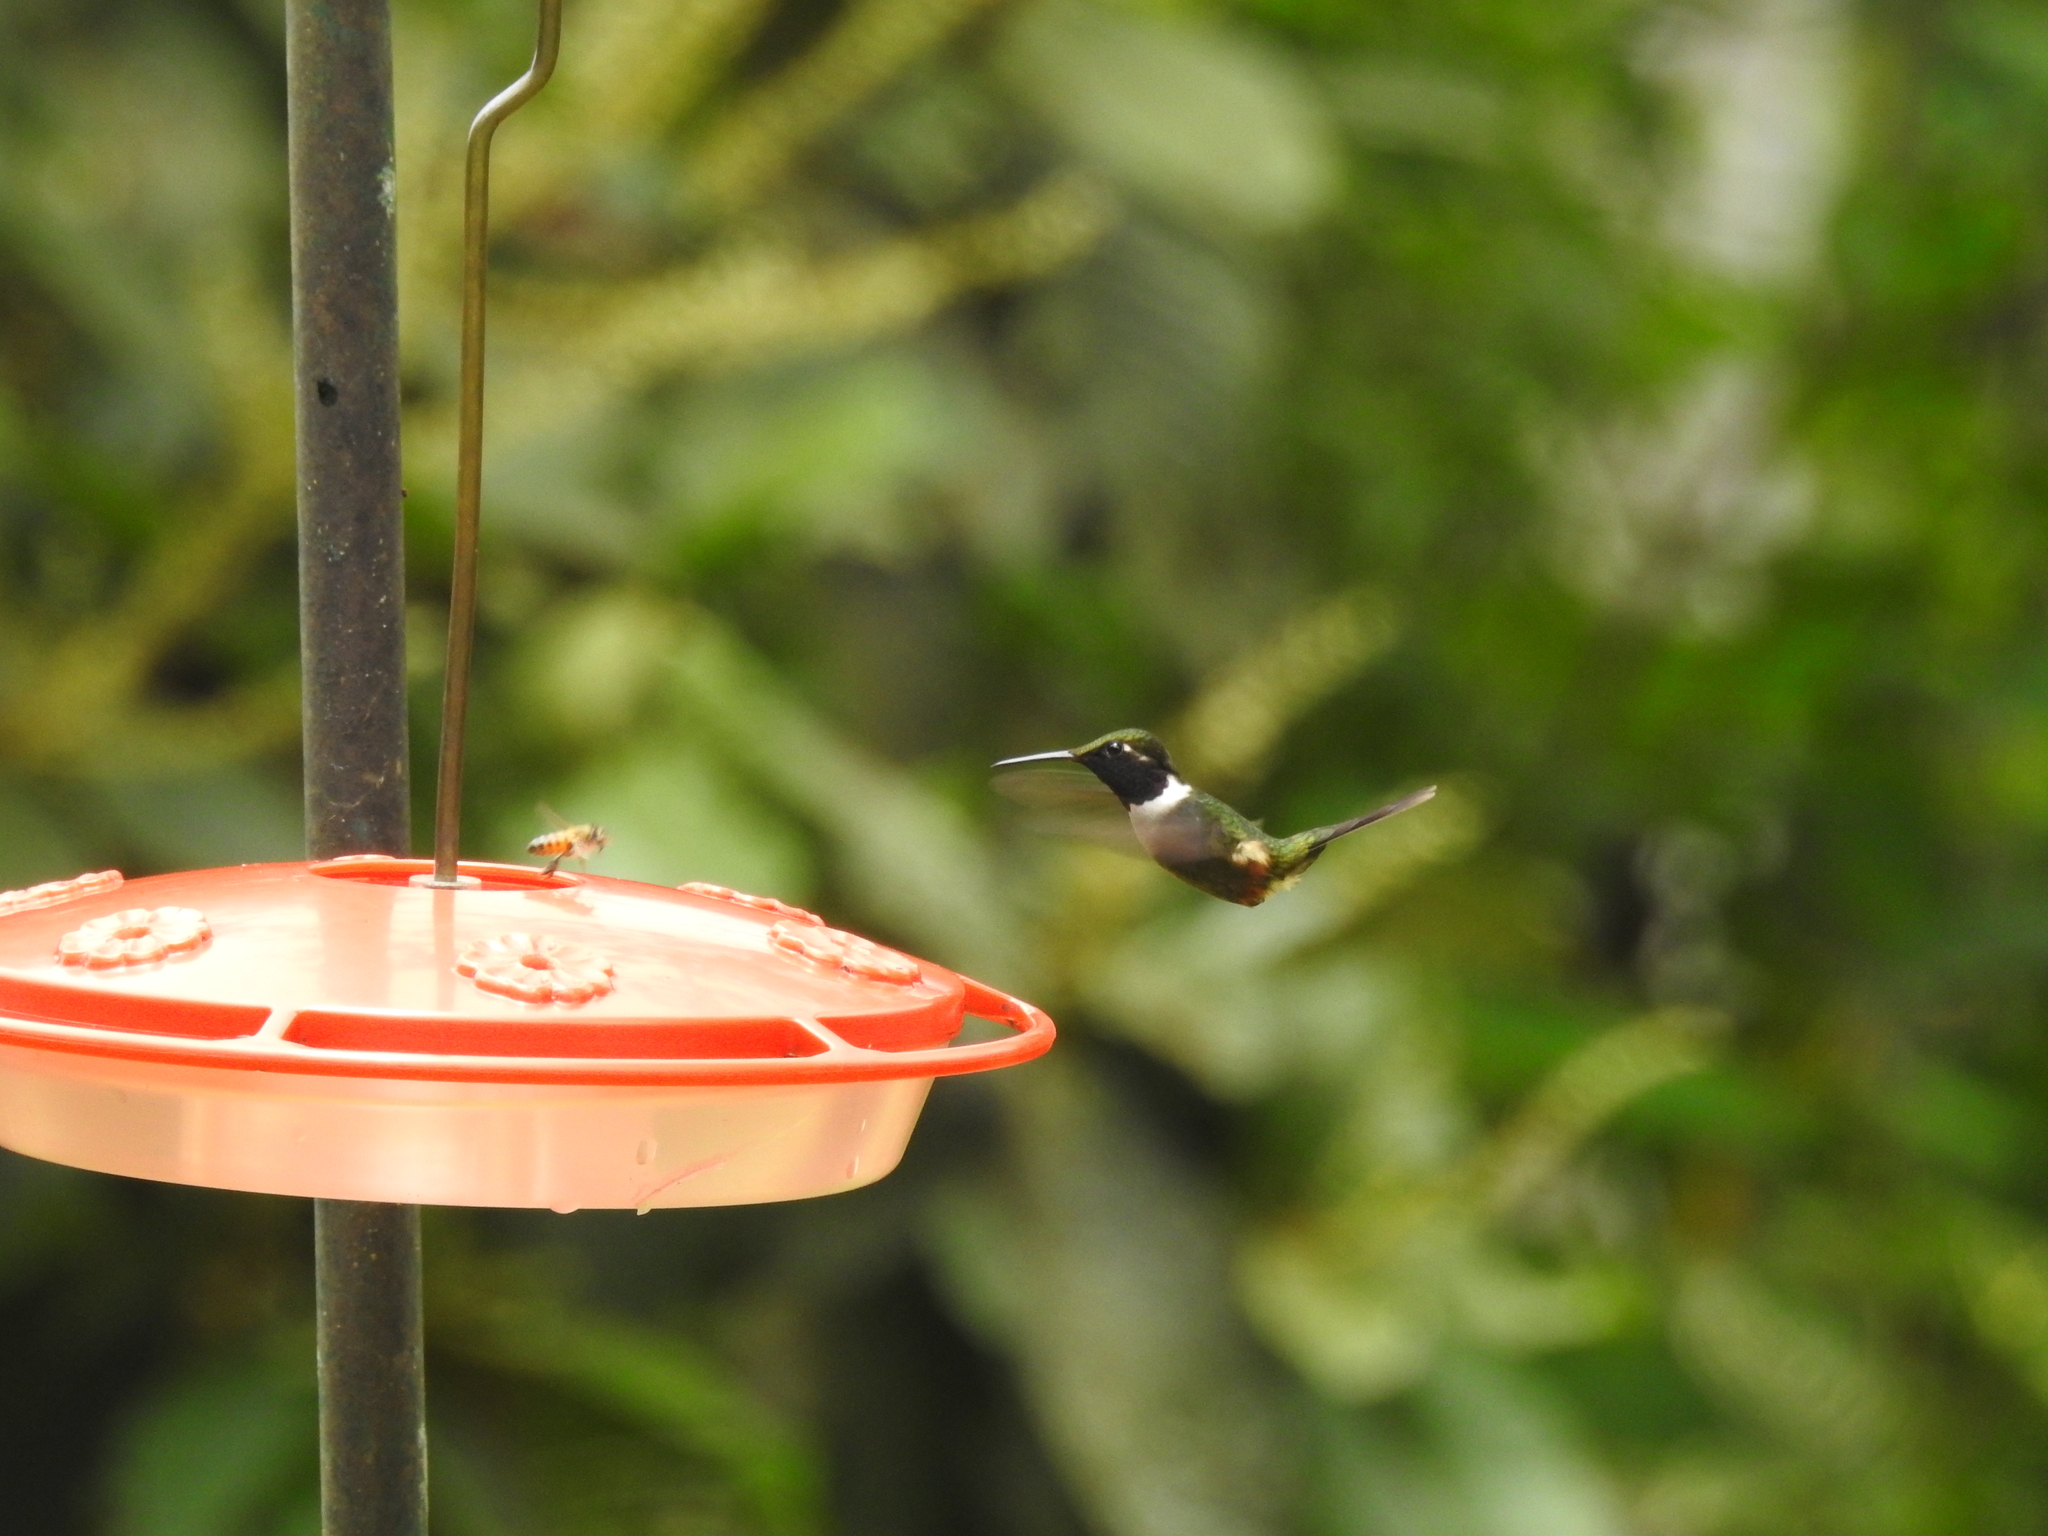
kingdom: Animalia
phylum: Chordata
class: Aves
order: Apodiformes
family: Trochilidae
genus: Calliphlox
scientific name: Calliphlox mitchellii
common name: Purple-throated woodstar
